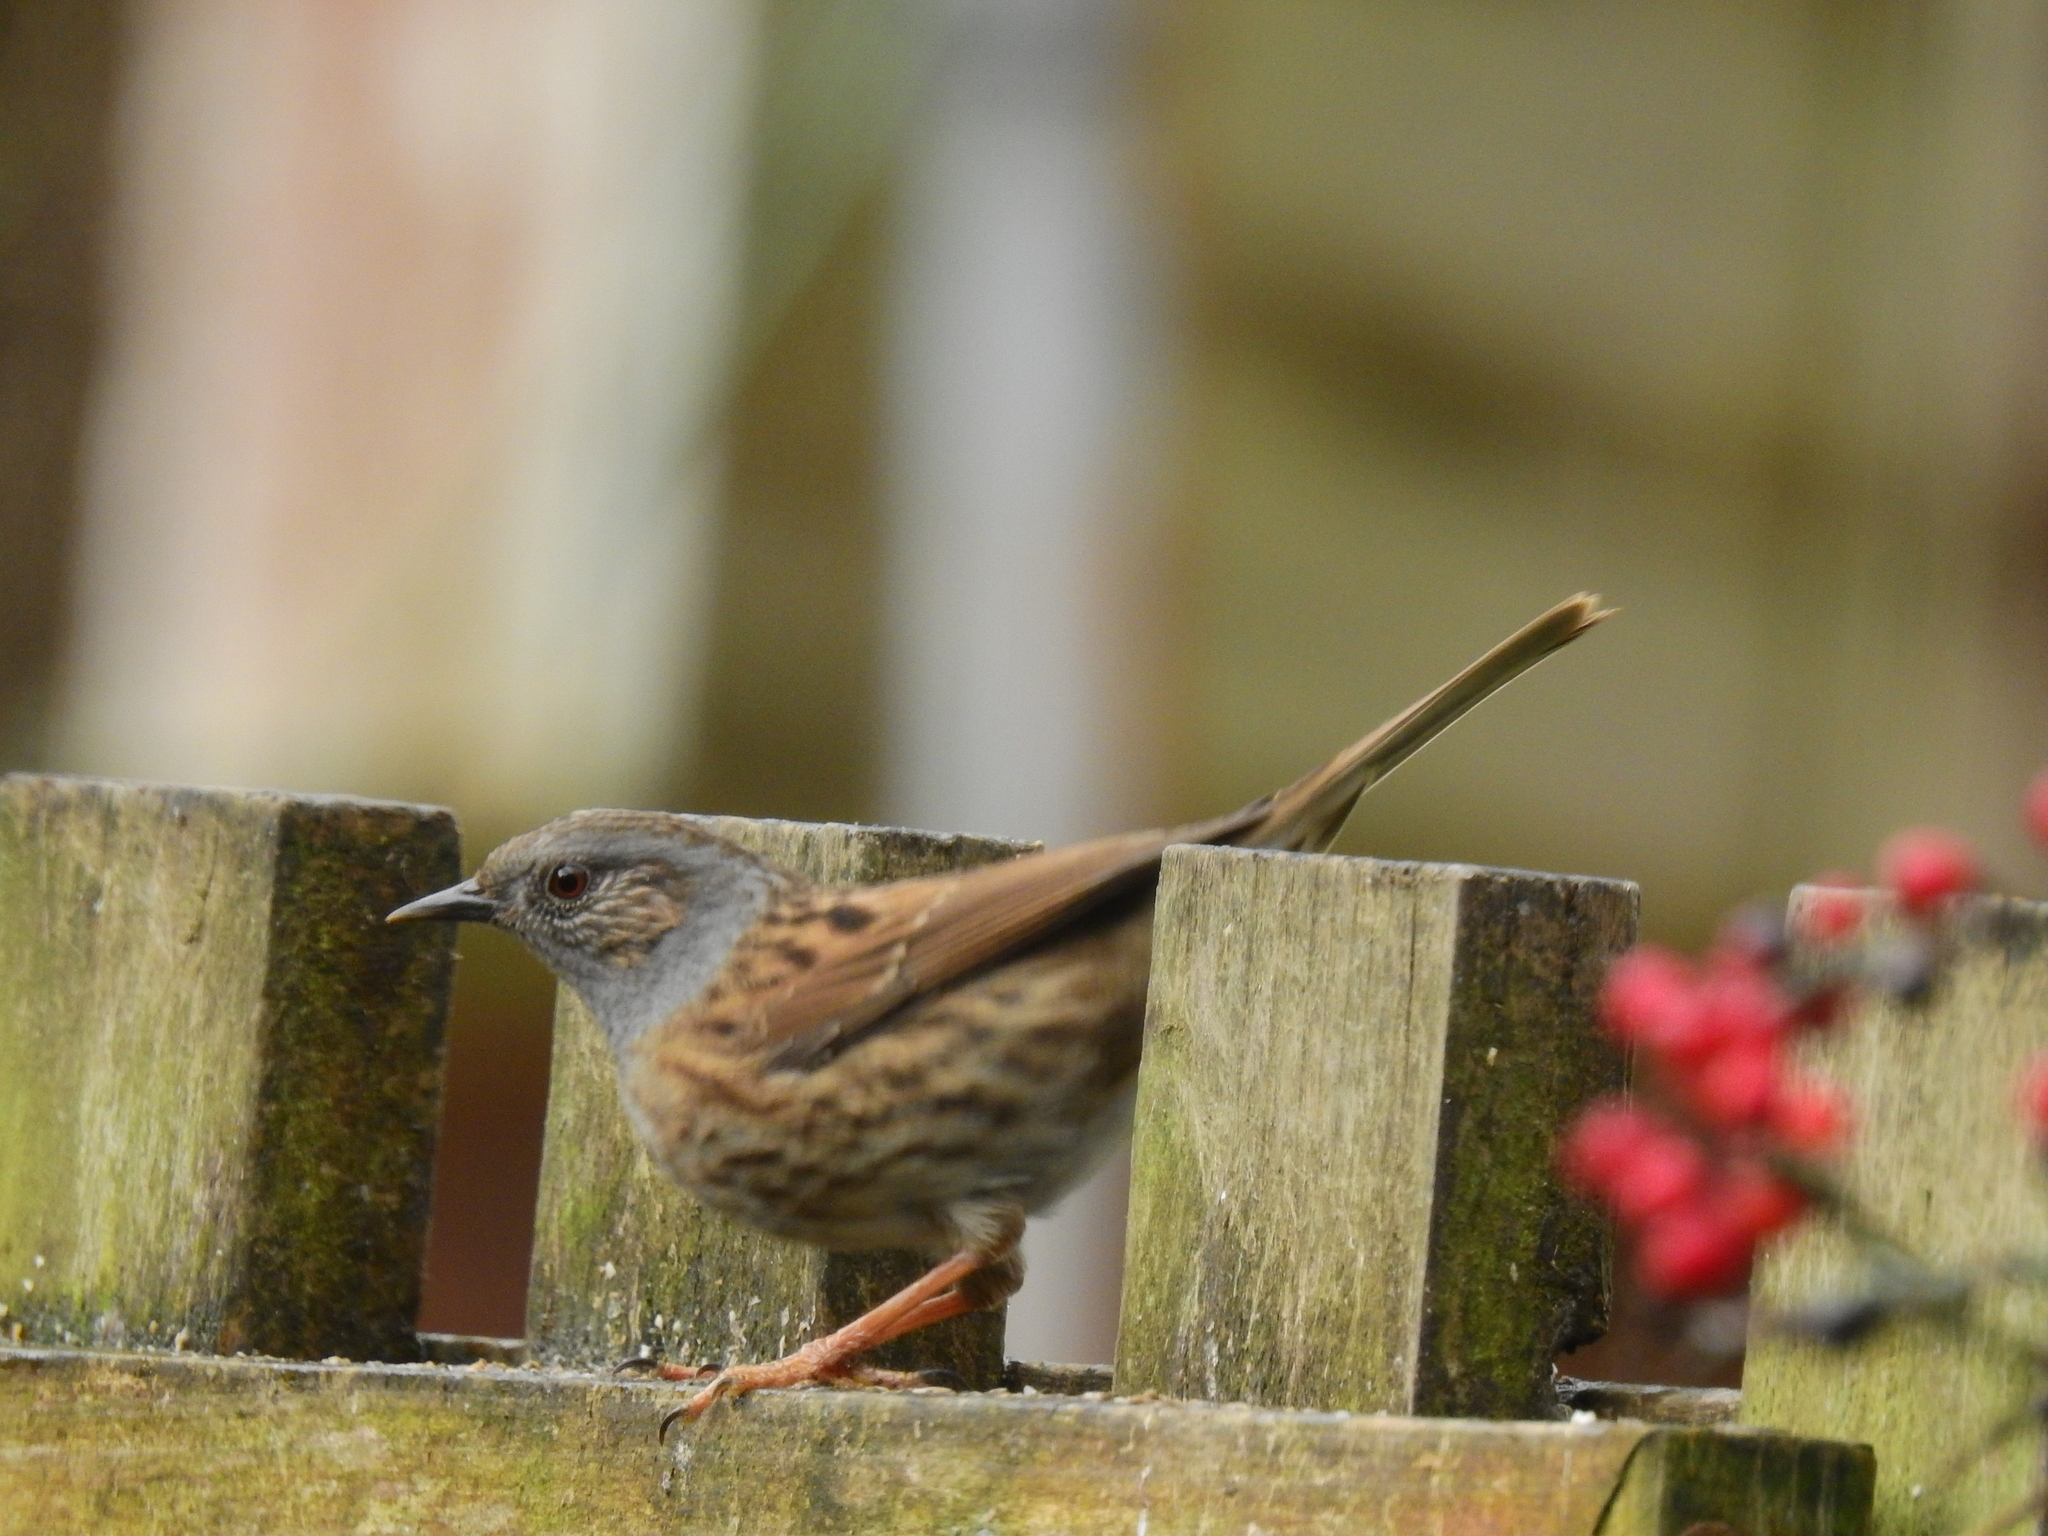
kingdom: Animalia
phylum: Chordata
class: Aves
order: Passeriformes
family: Prunellidae
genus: Prunella
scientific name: Prunella modularis
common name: Dunnock
